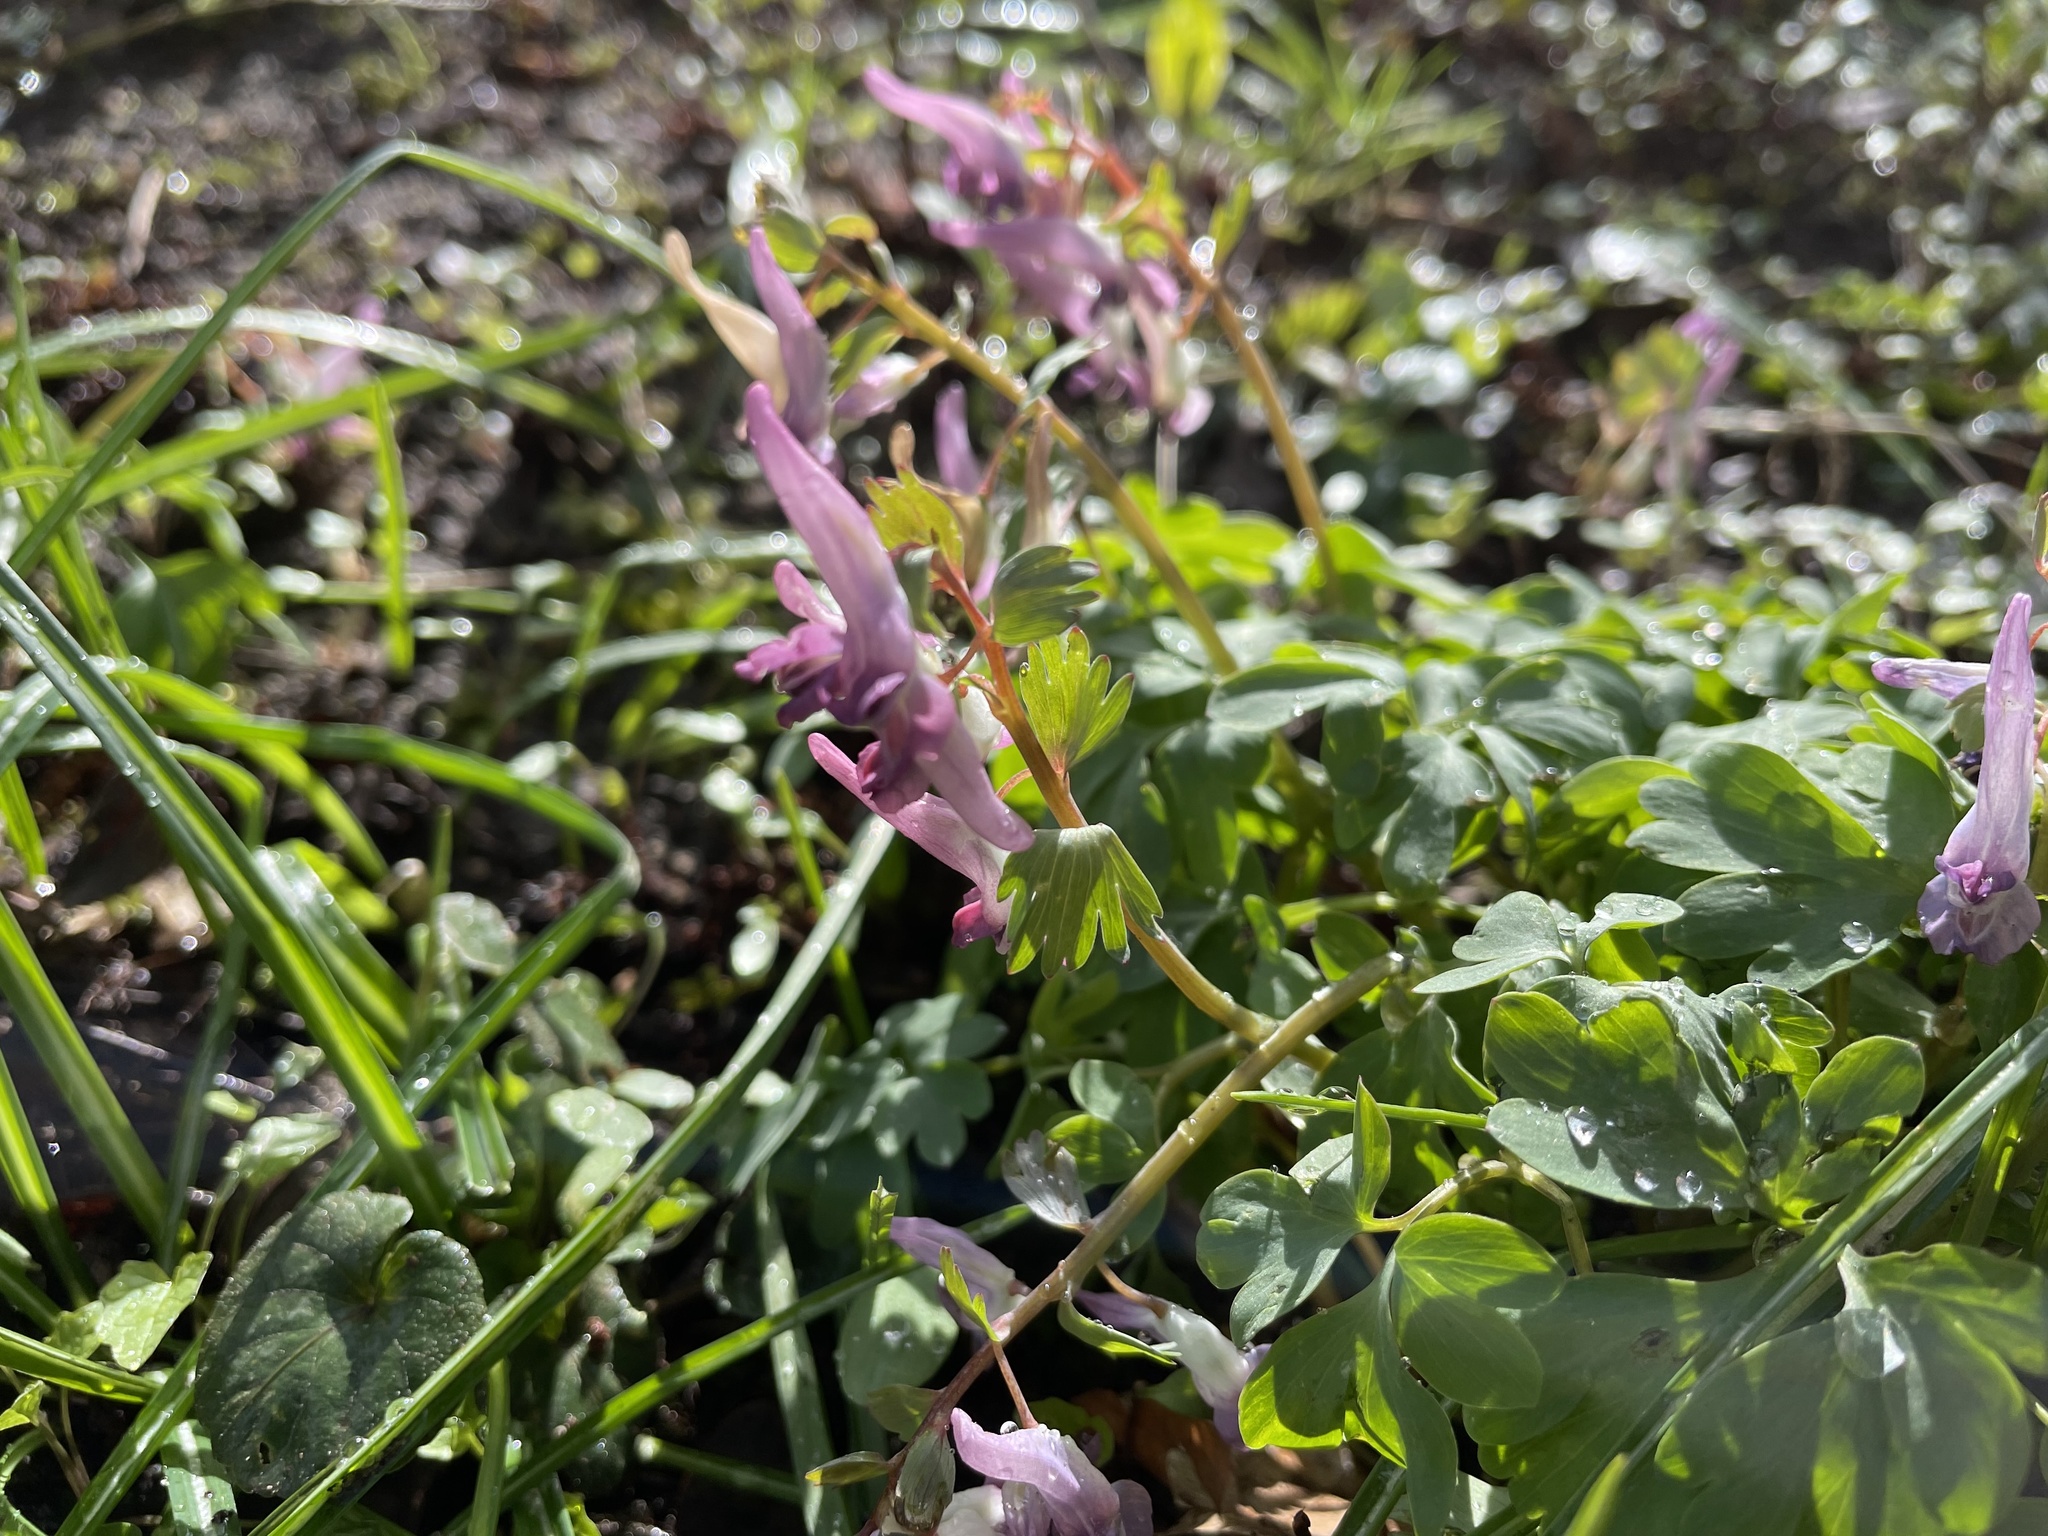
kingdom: Plantae
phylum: Tracheophyta
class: Magnoliopsida
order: Ranunculales
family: Papaveraceae
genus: Corydalis
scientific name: Corydalis solida
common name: Bird-in-a-bush
